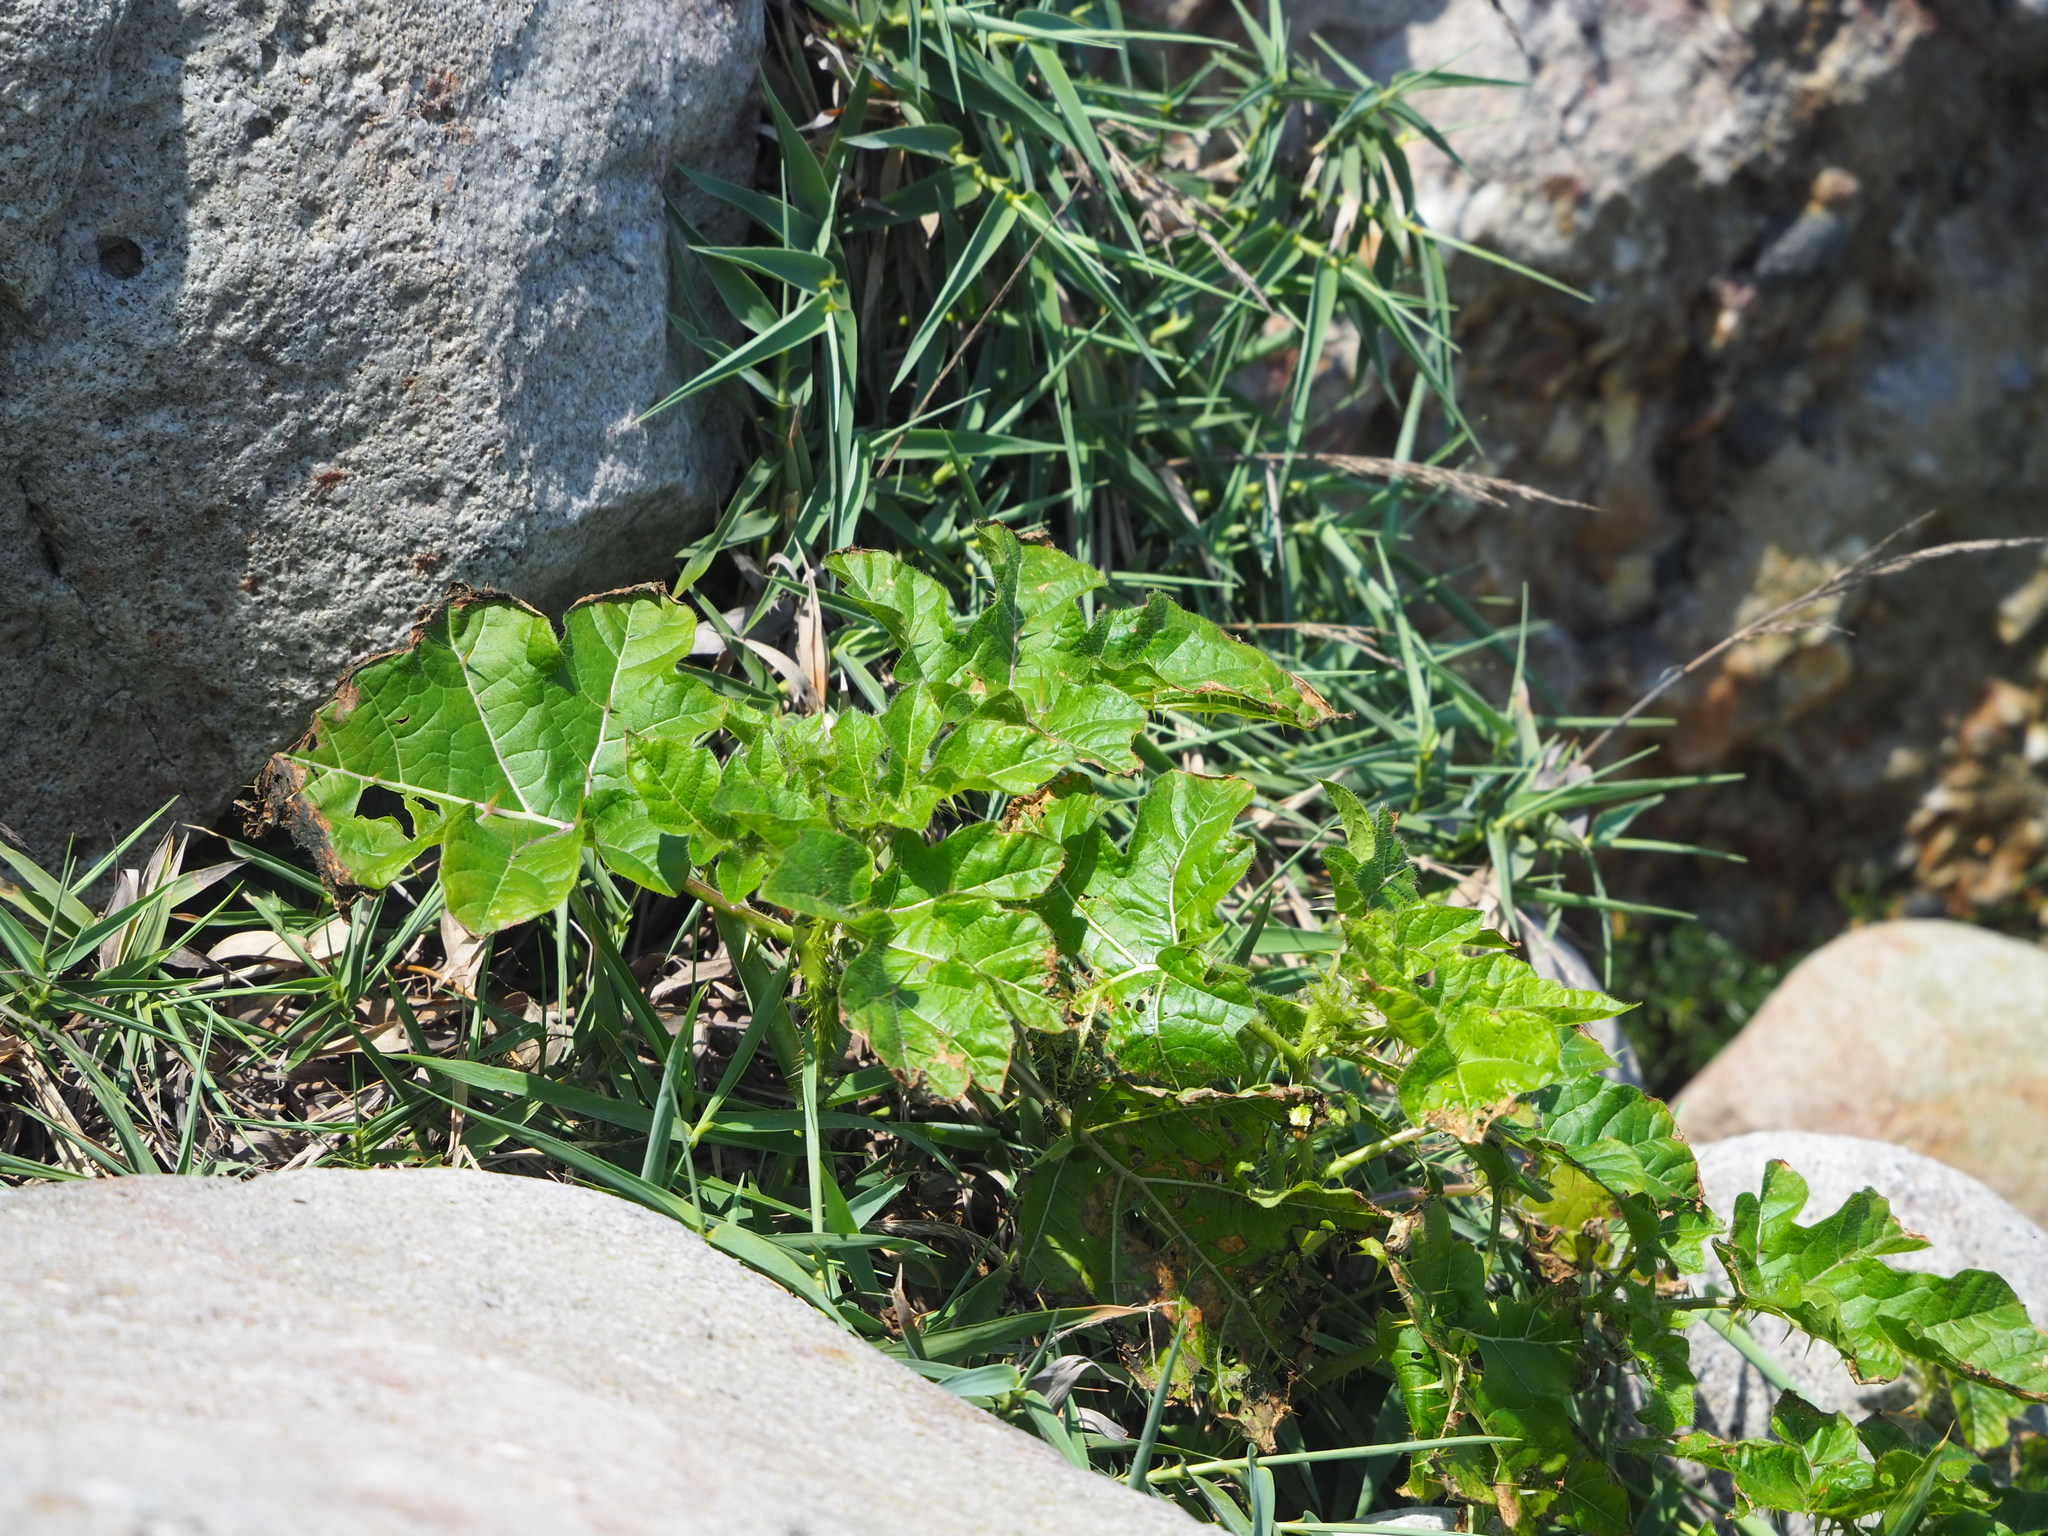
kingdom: Plantae
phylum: Tracheophyta
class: Magnoliopsida
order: Solanales
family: Solanaceae
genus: Solanum
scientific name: Solanum capsicoides
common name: Cockroach berry
